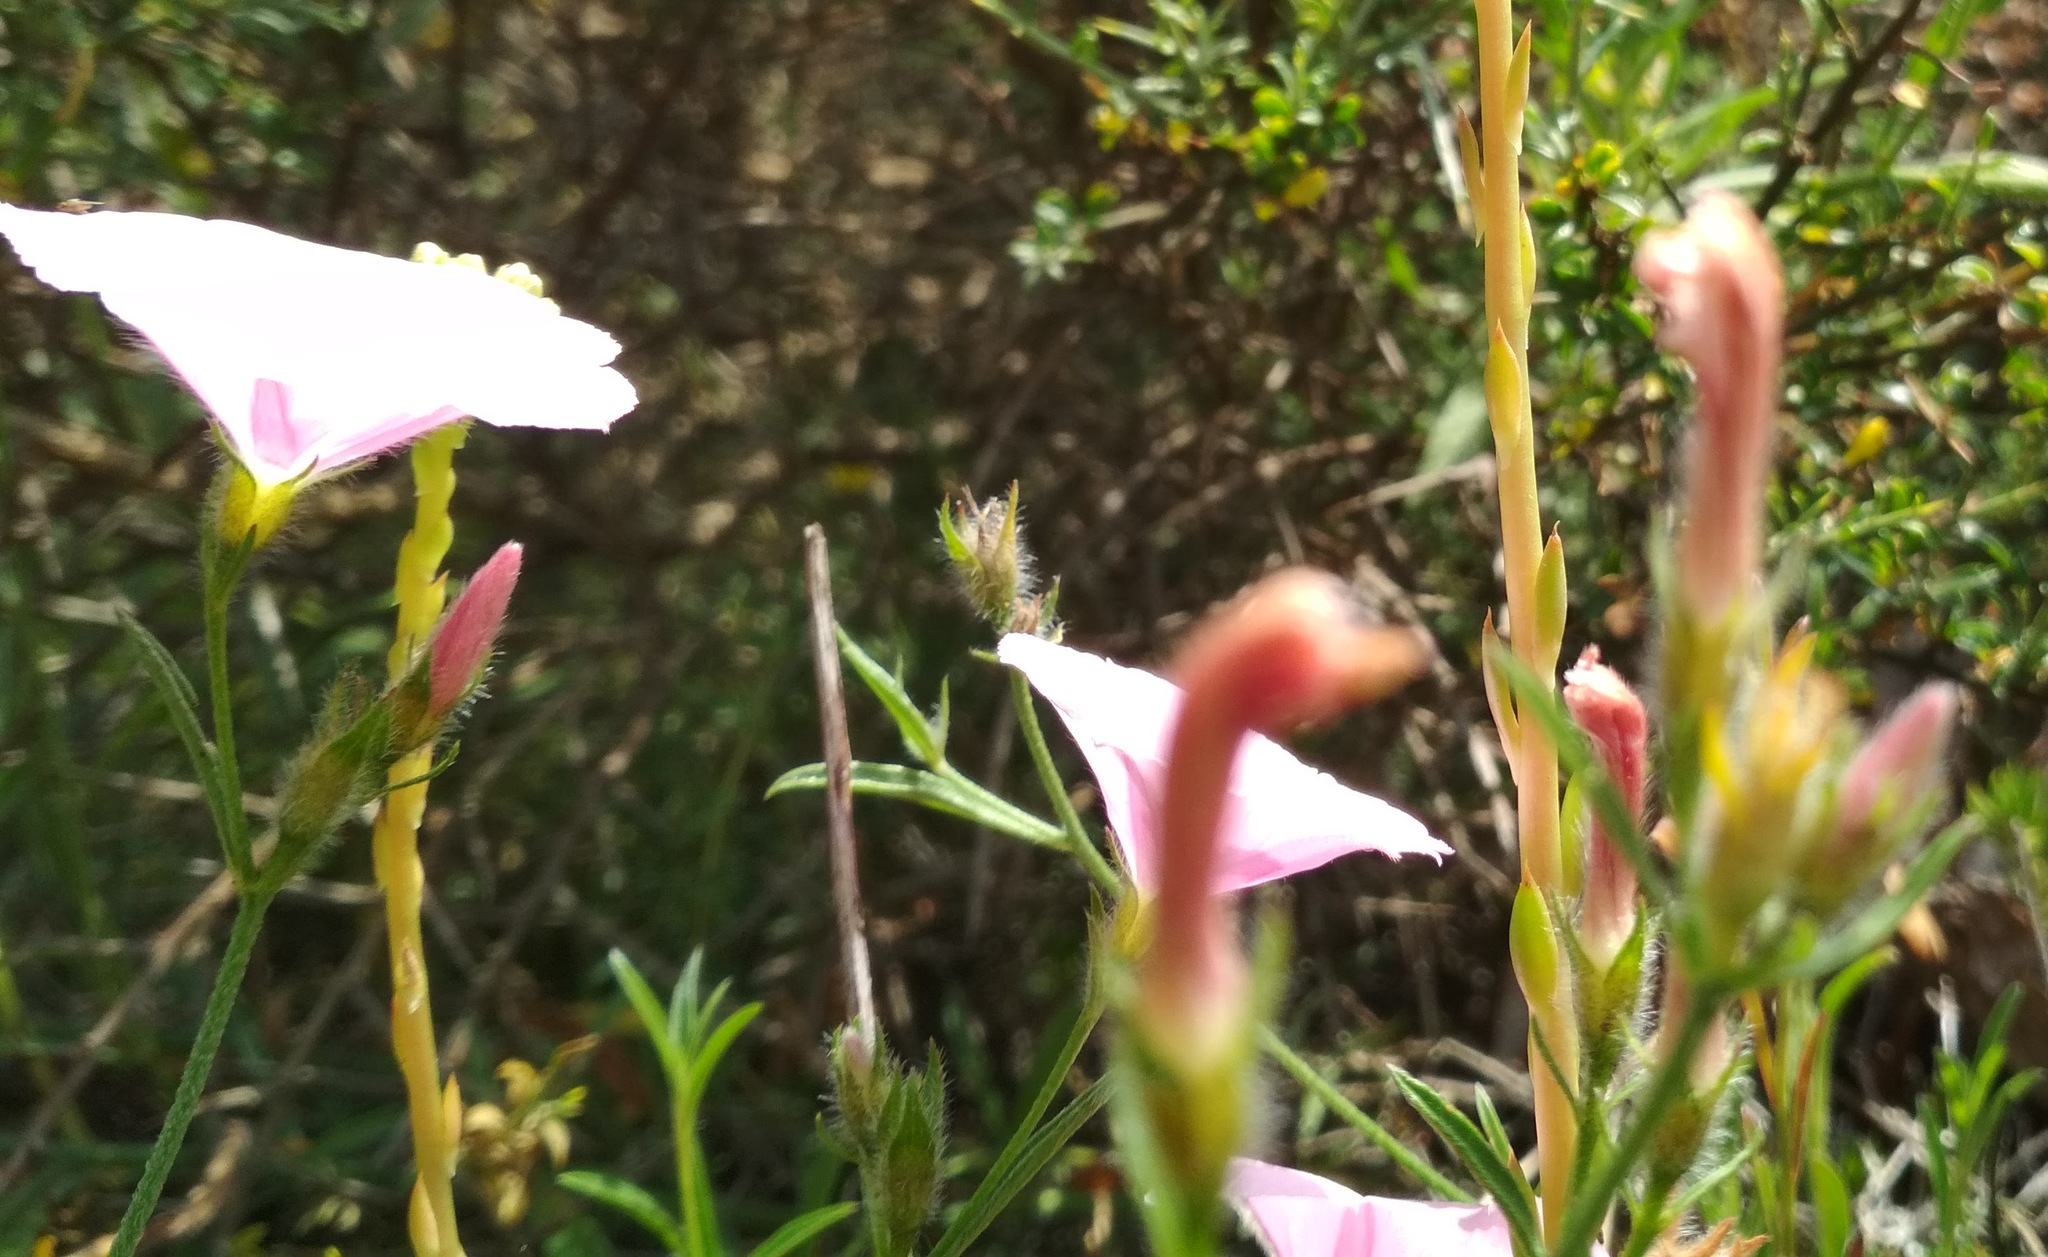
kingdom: Plantae
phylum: Tracheophyta
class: Magnoliopsida
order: Solanales
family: Convolvulaceae
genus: Convolvulus
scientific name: Convolvulus cantabrica
